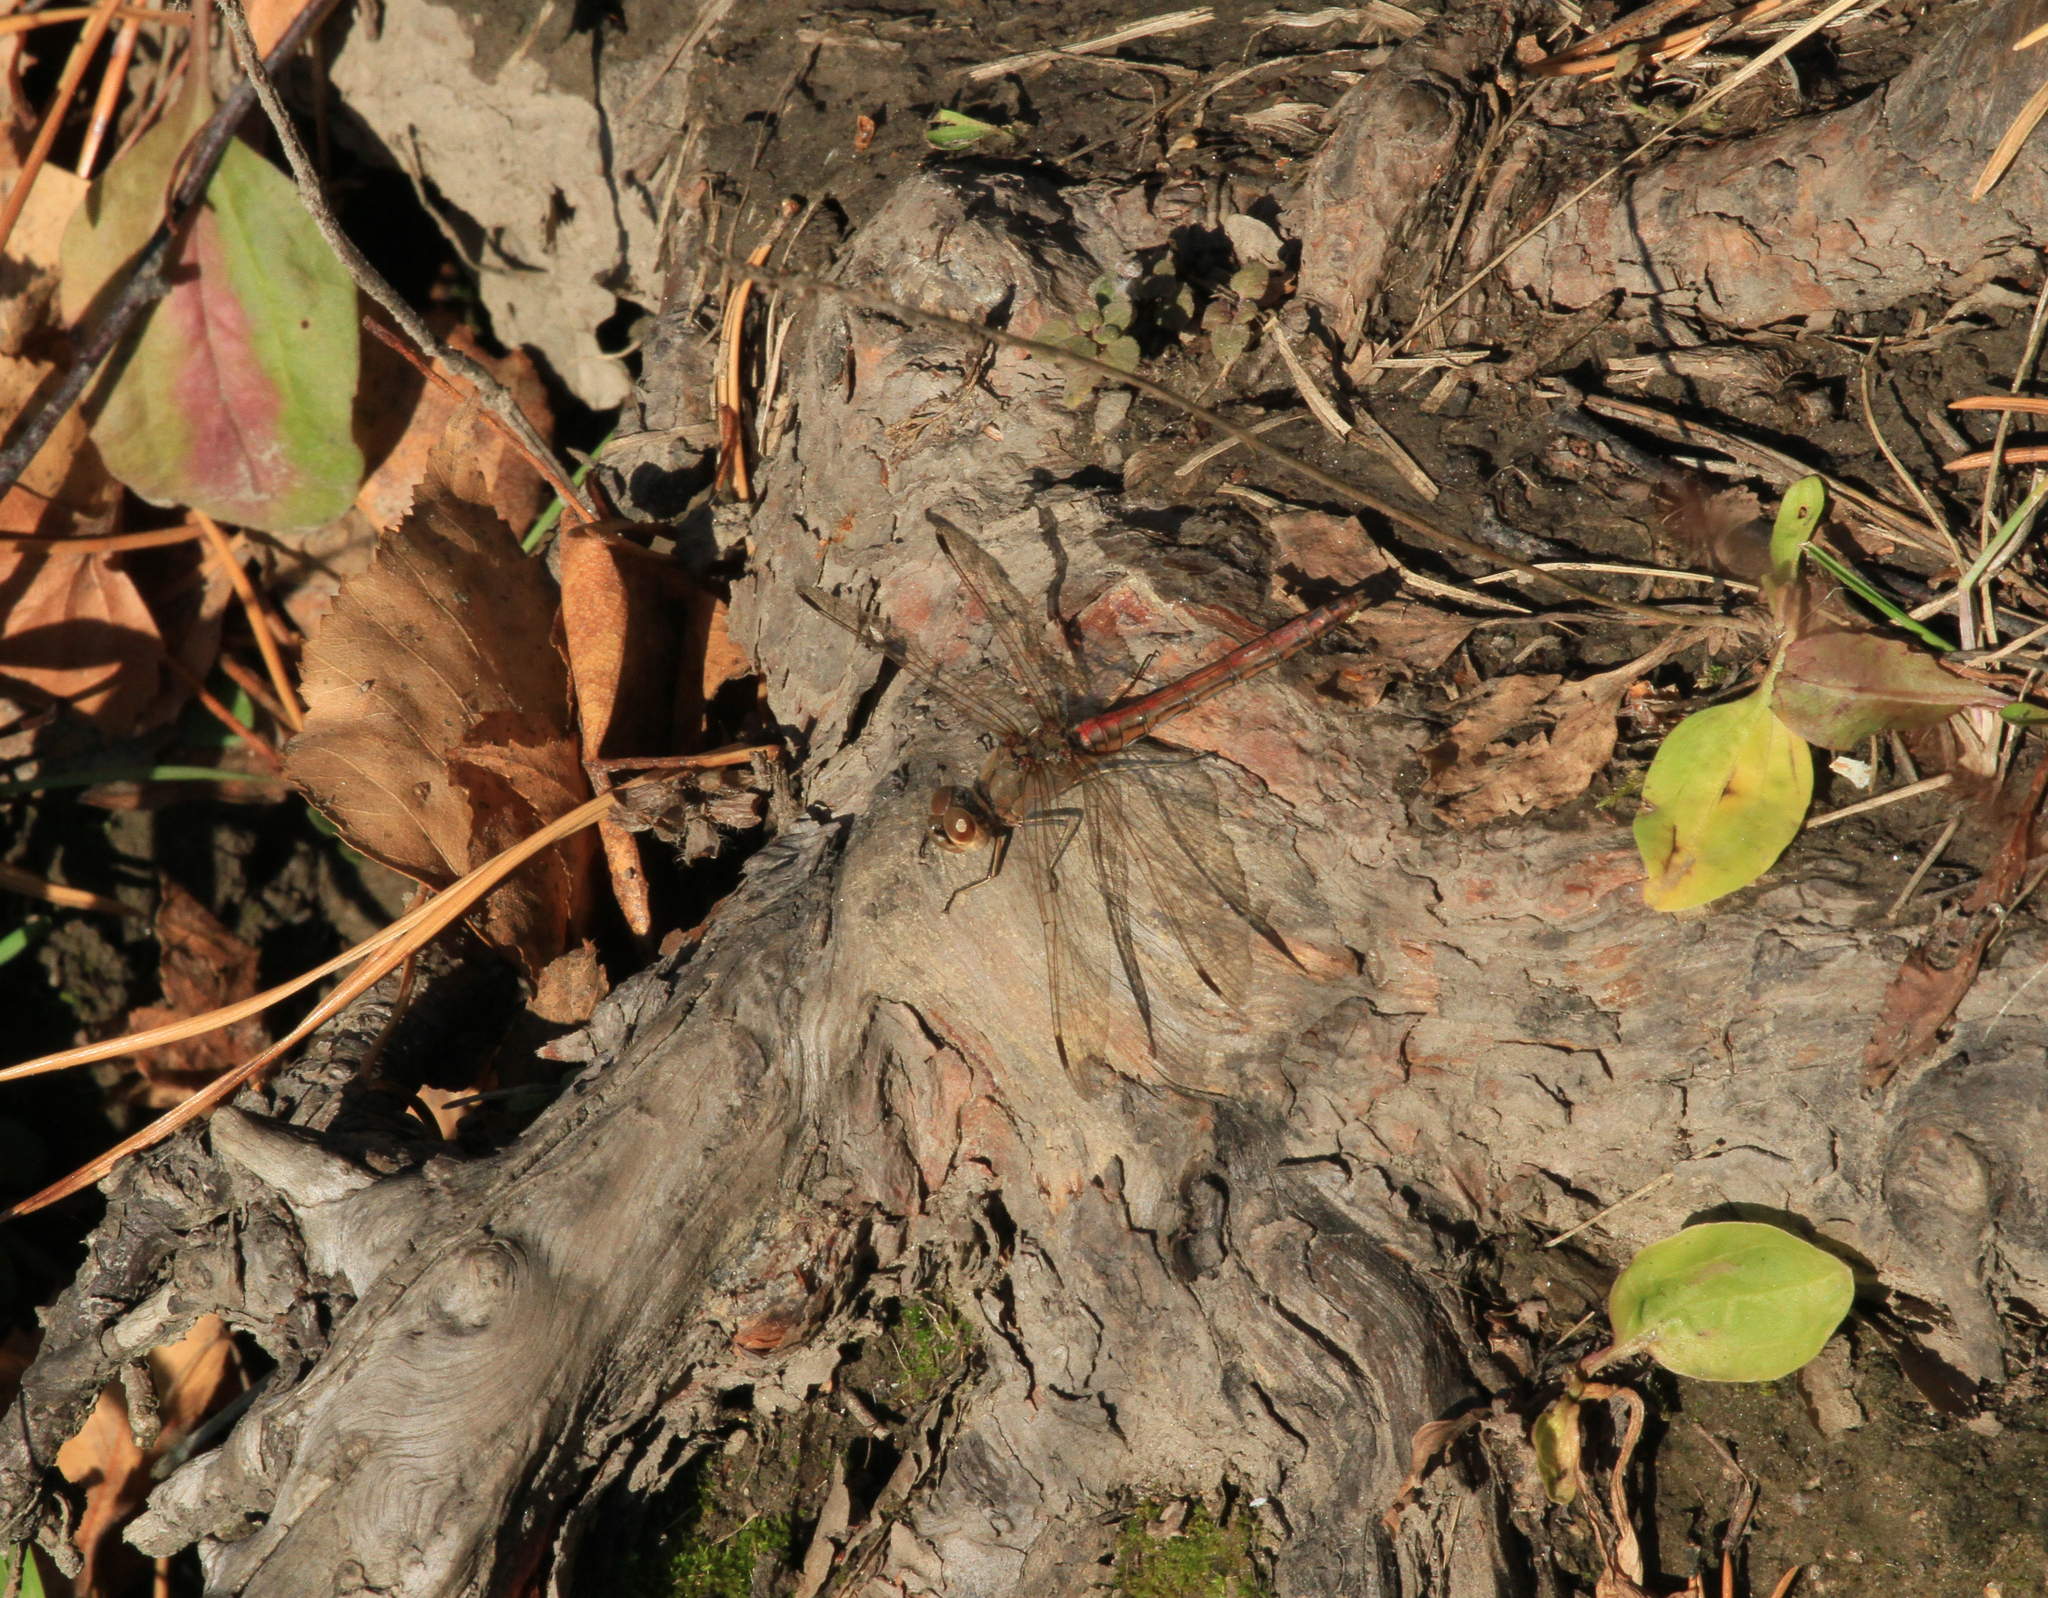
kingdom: Animalia
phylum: Arthropoda
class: Insecta
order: Odonata
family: Libellulidae
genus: Sympetrum
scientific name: Sympetrum vulgatum
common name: Vagrant darter
